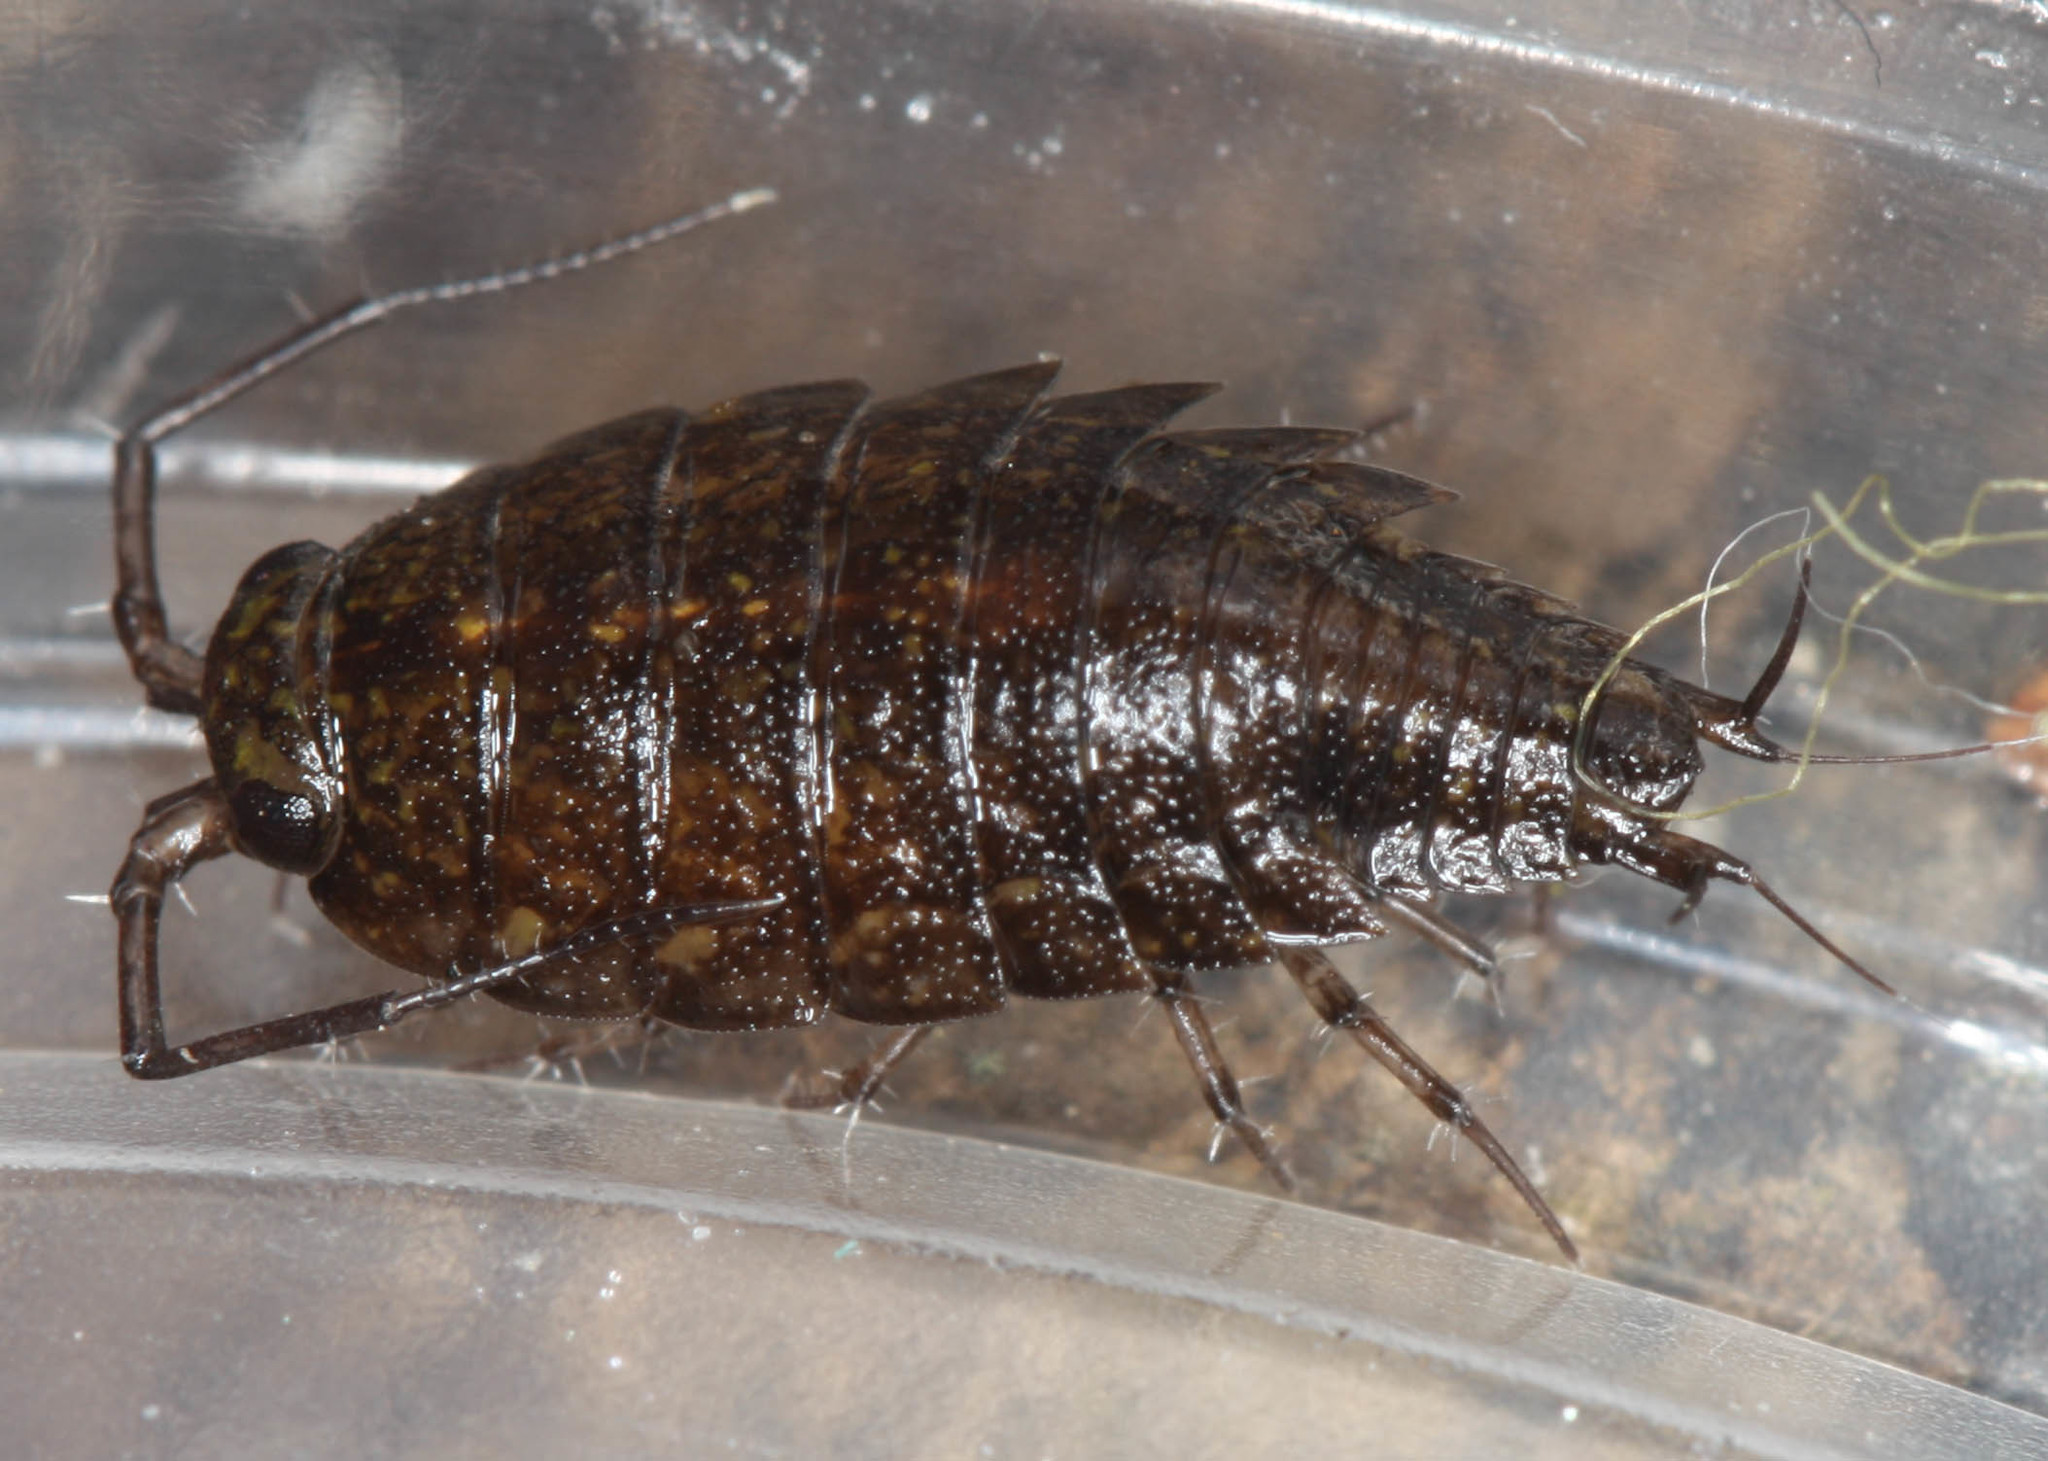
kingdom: Animalia
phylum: Arthropoda
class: Malacostraca
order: Isopoda
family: Ligiidae
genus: Ligidium
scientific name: Ligidium latum
